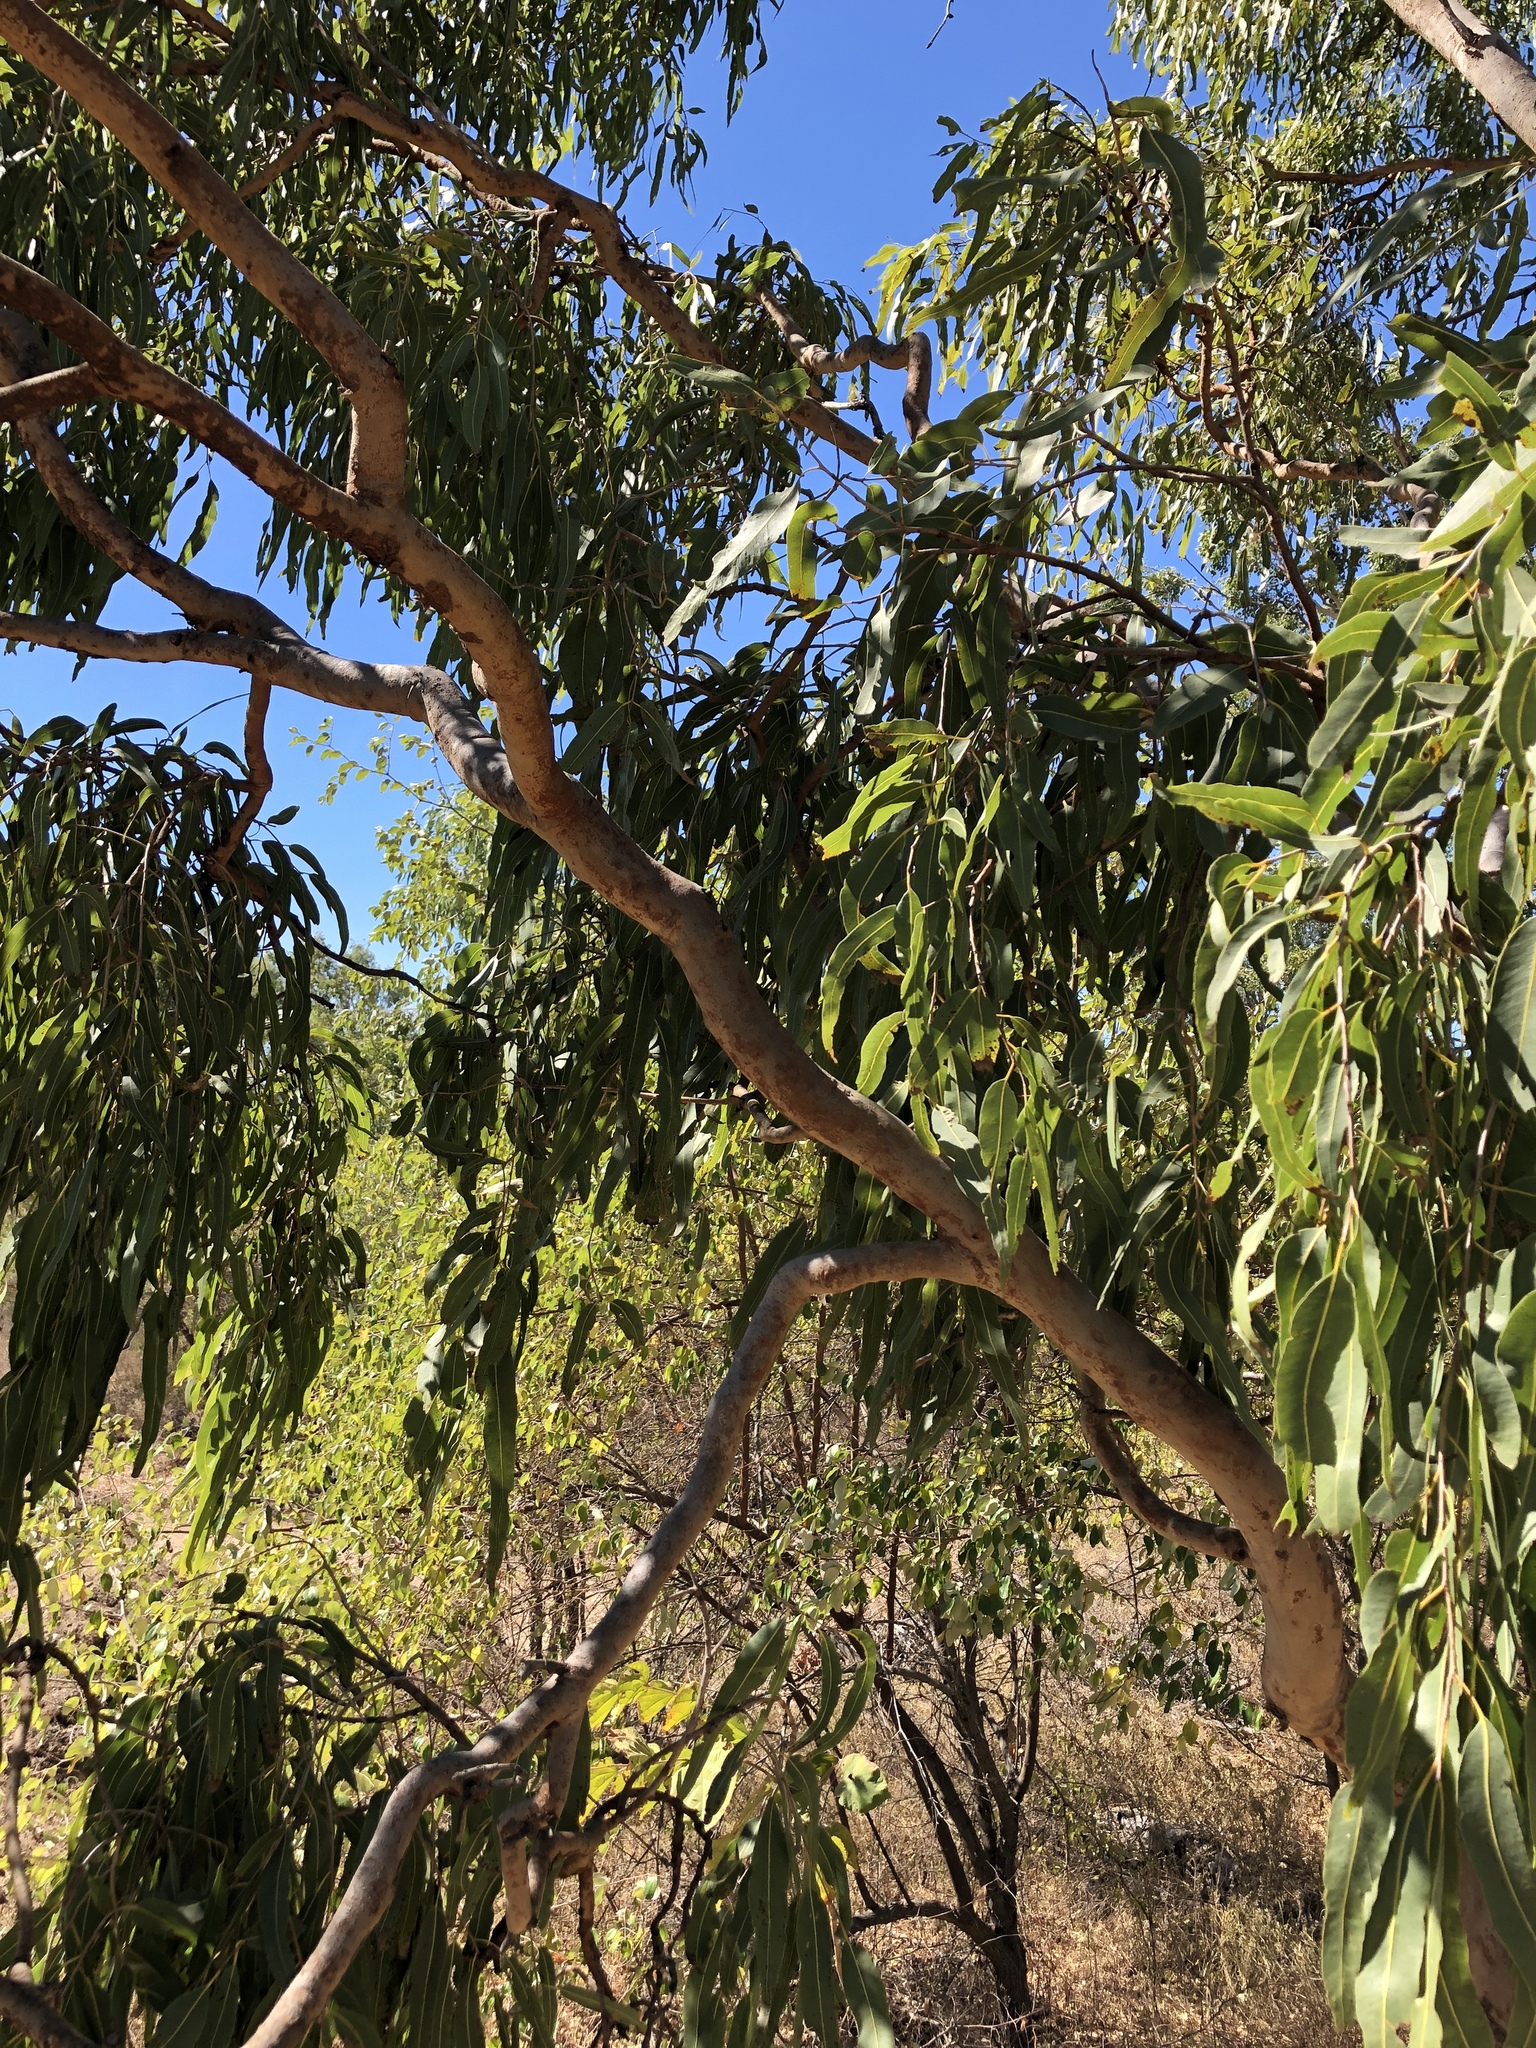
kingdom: Plantae
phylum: Tracheophyta
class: Magnoliopsida
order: Myrtales
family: Myrtaceae
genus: Corymbia
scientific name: Corymbia dallachiana
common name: Dallachy's gum
